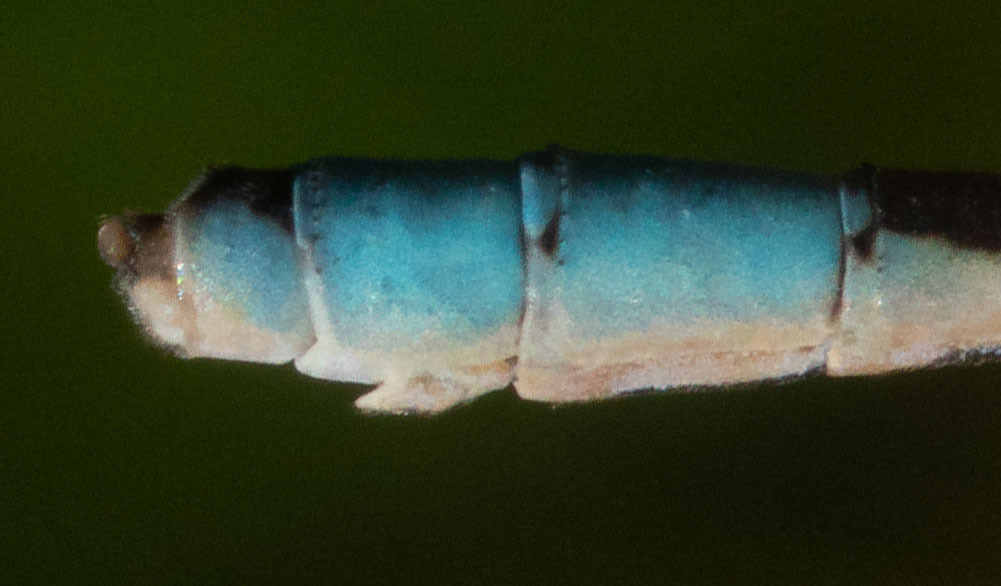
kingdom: Animalia
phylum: Arthropoda
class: Insecta
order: Odonata
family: Coenagrionidae
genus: Enallagma
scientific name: Enallagma carunculatum
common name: Tule bluet
